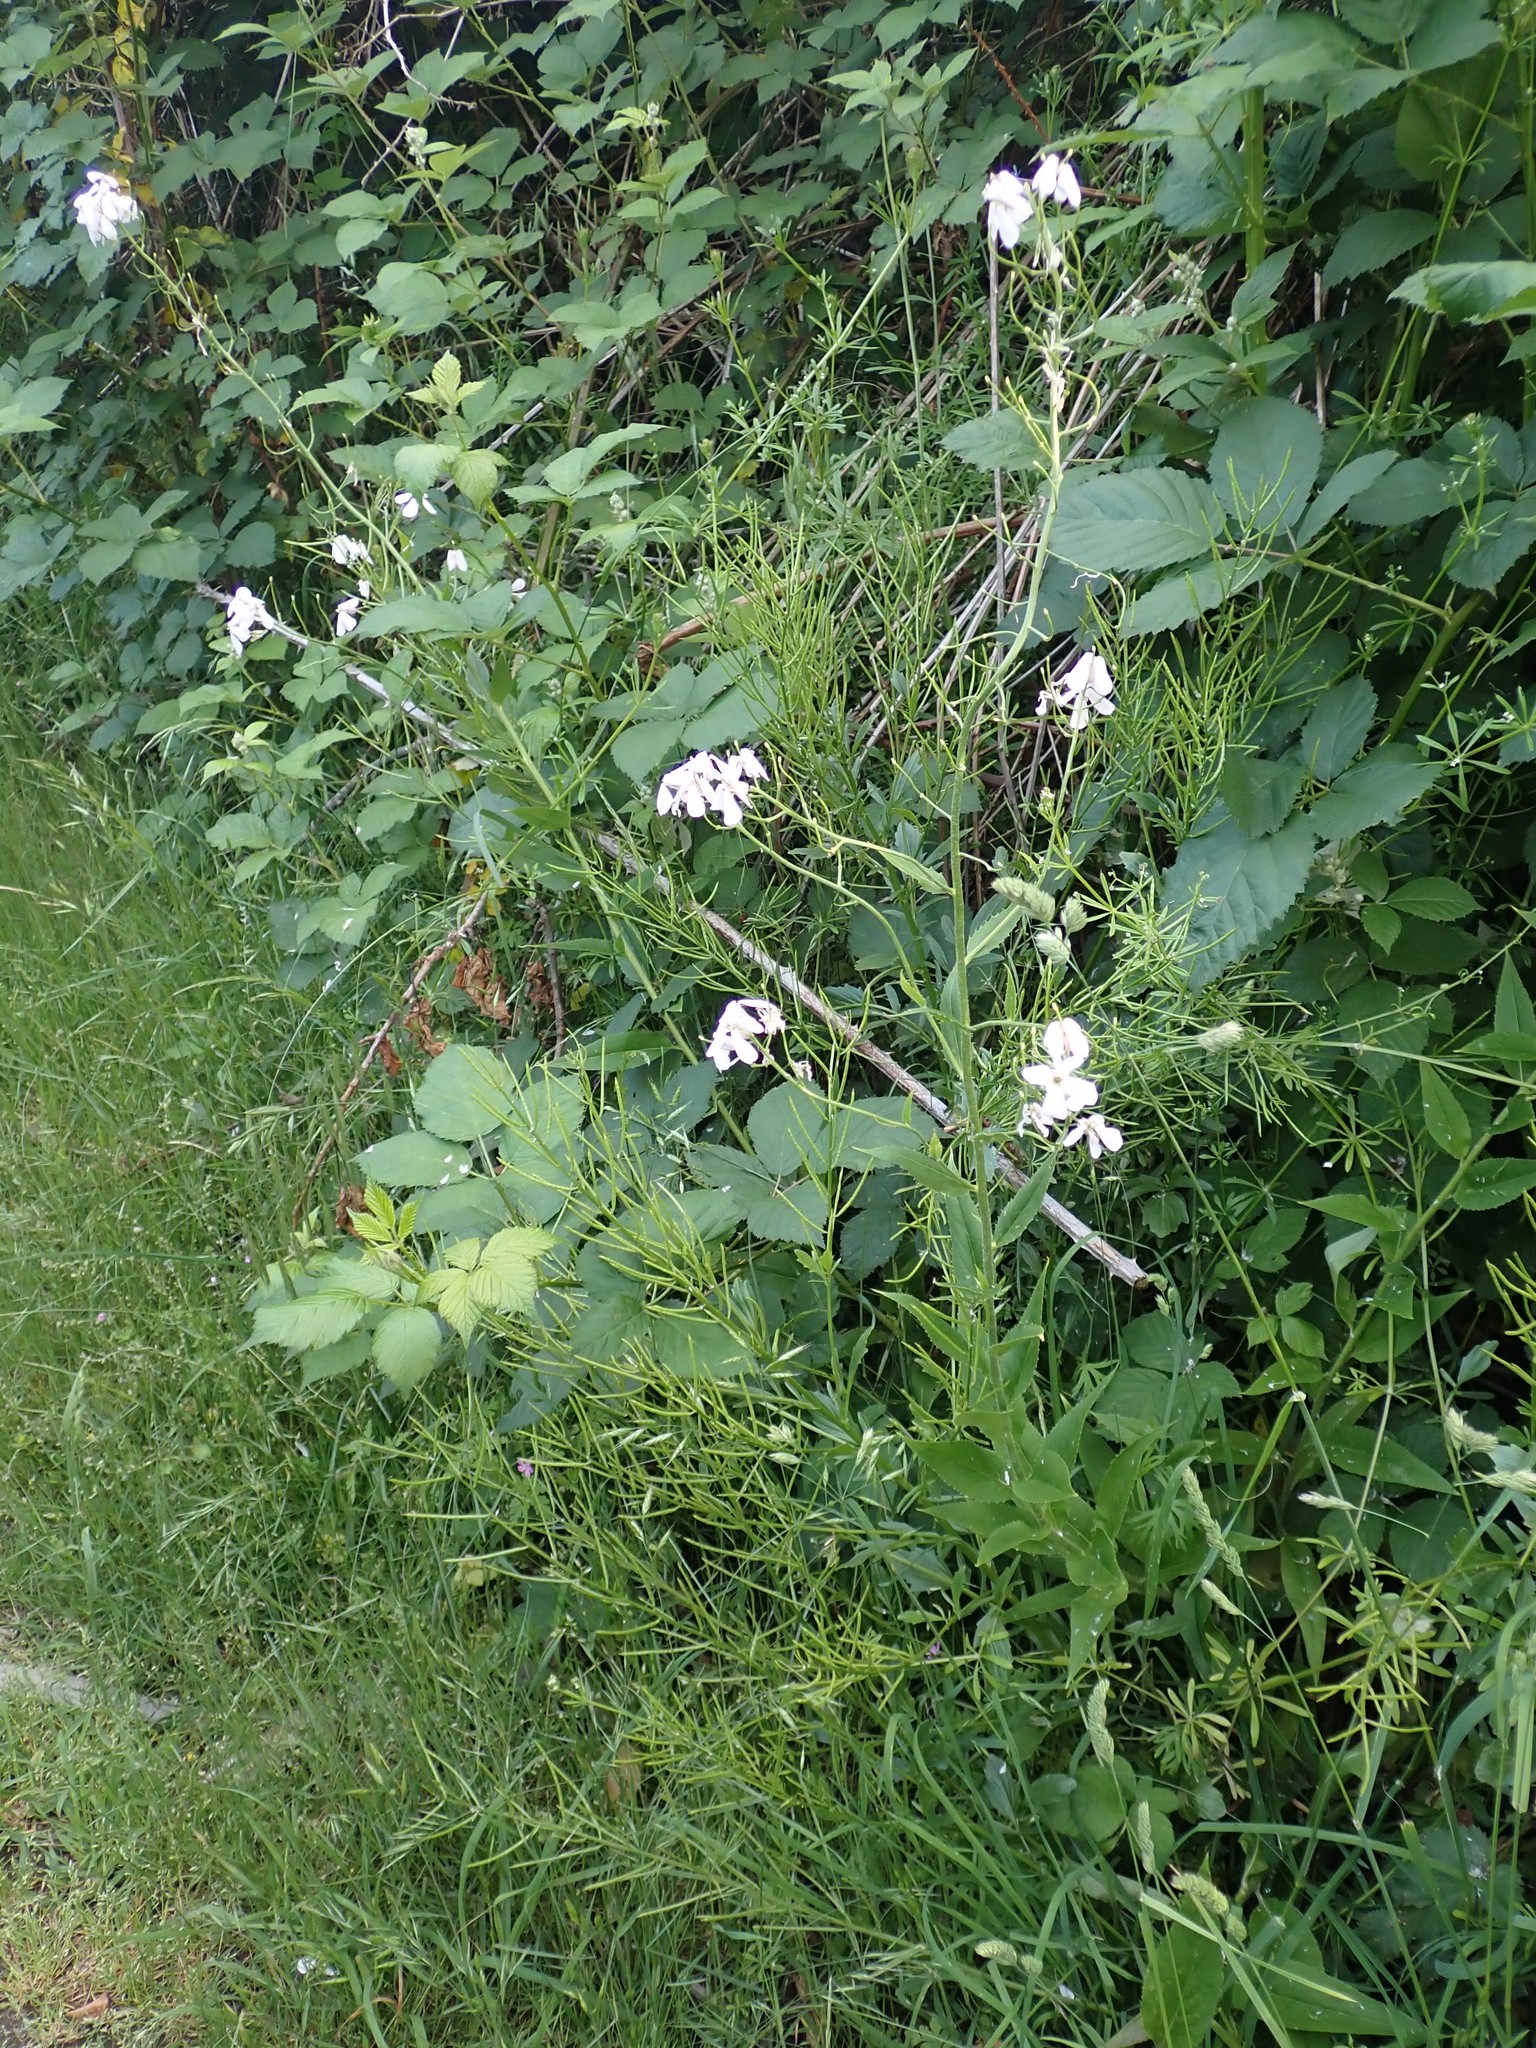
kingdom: Plantae
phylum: Tracheophyta
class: Magnoliopsida
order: Brassicales
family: Brassicaceae
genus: Hesperis
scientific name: Hesperis matronalis
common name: Dame's-violet
